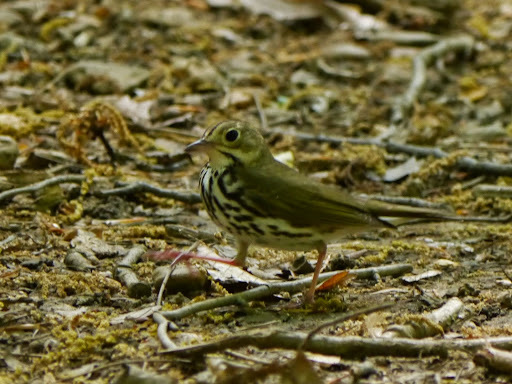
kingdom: Animalia
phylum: Chordata
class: Aves
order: Passeriformes
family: Parulidae
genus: Seiurus
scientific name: Seiurus aurocapilla
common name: Ovenbird
